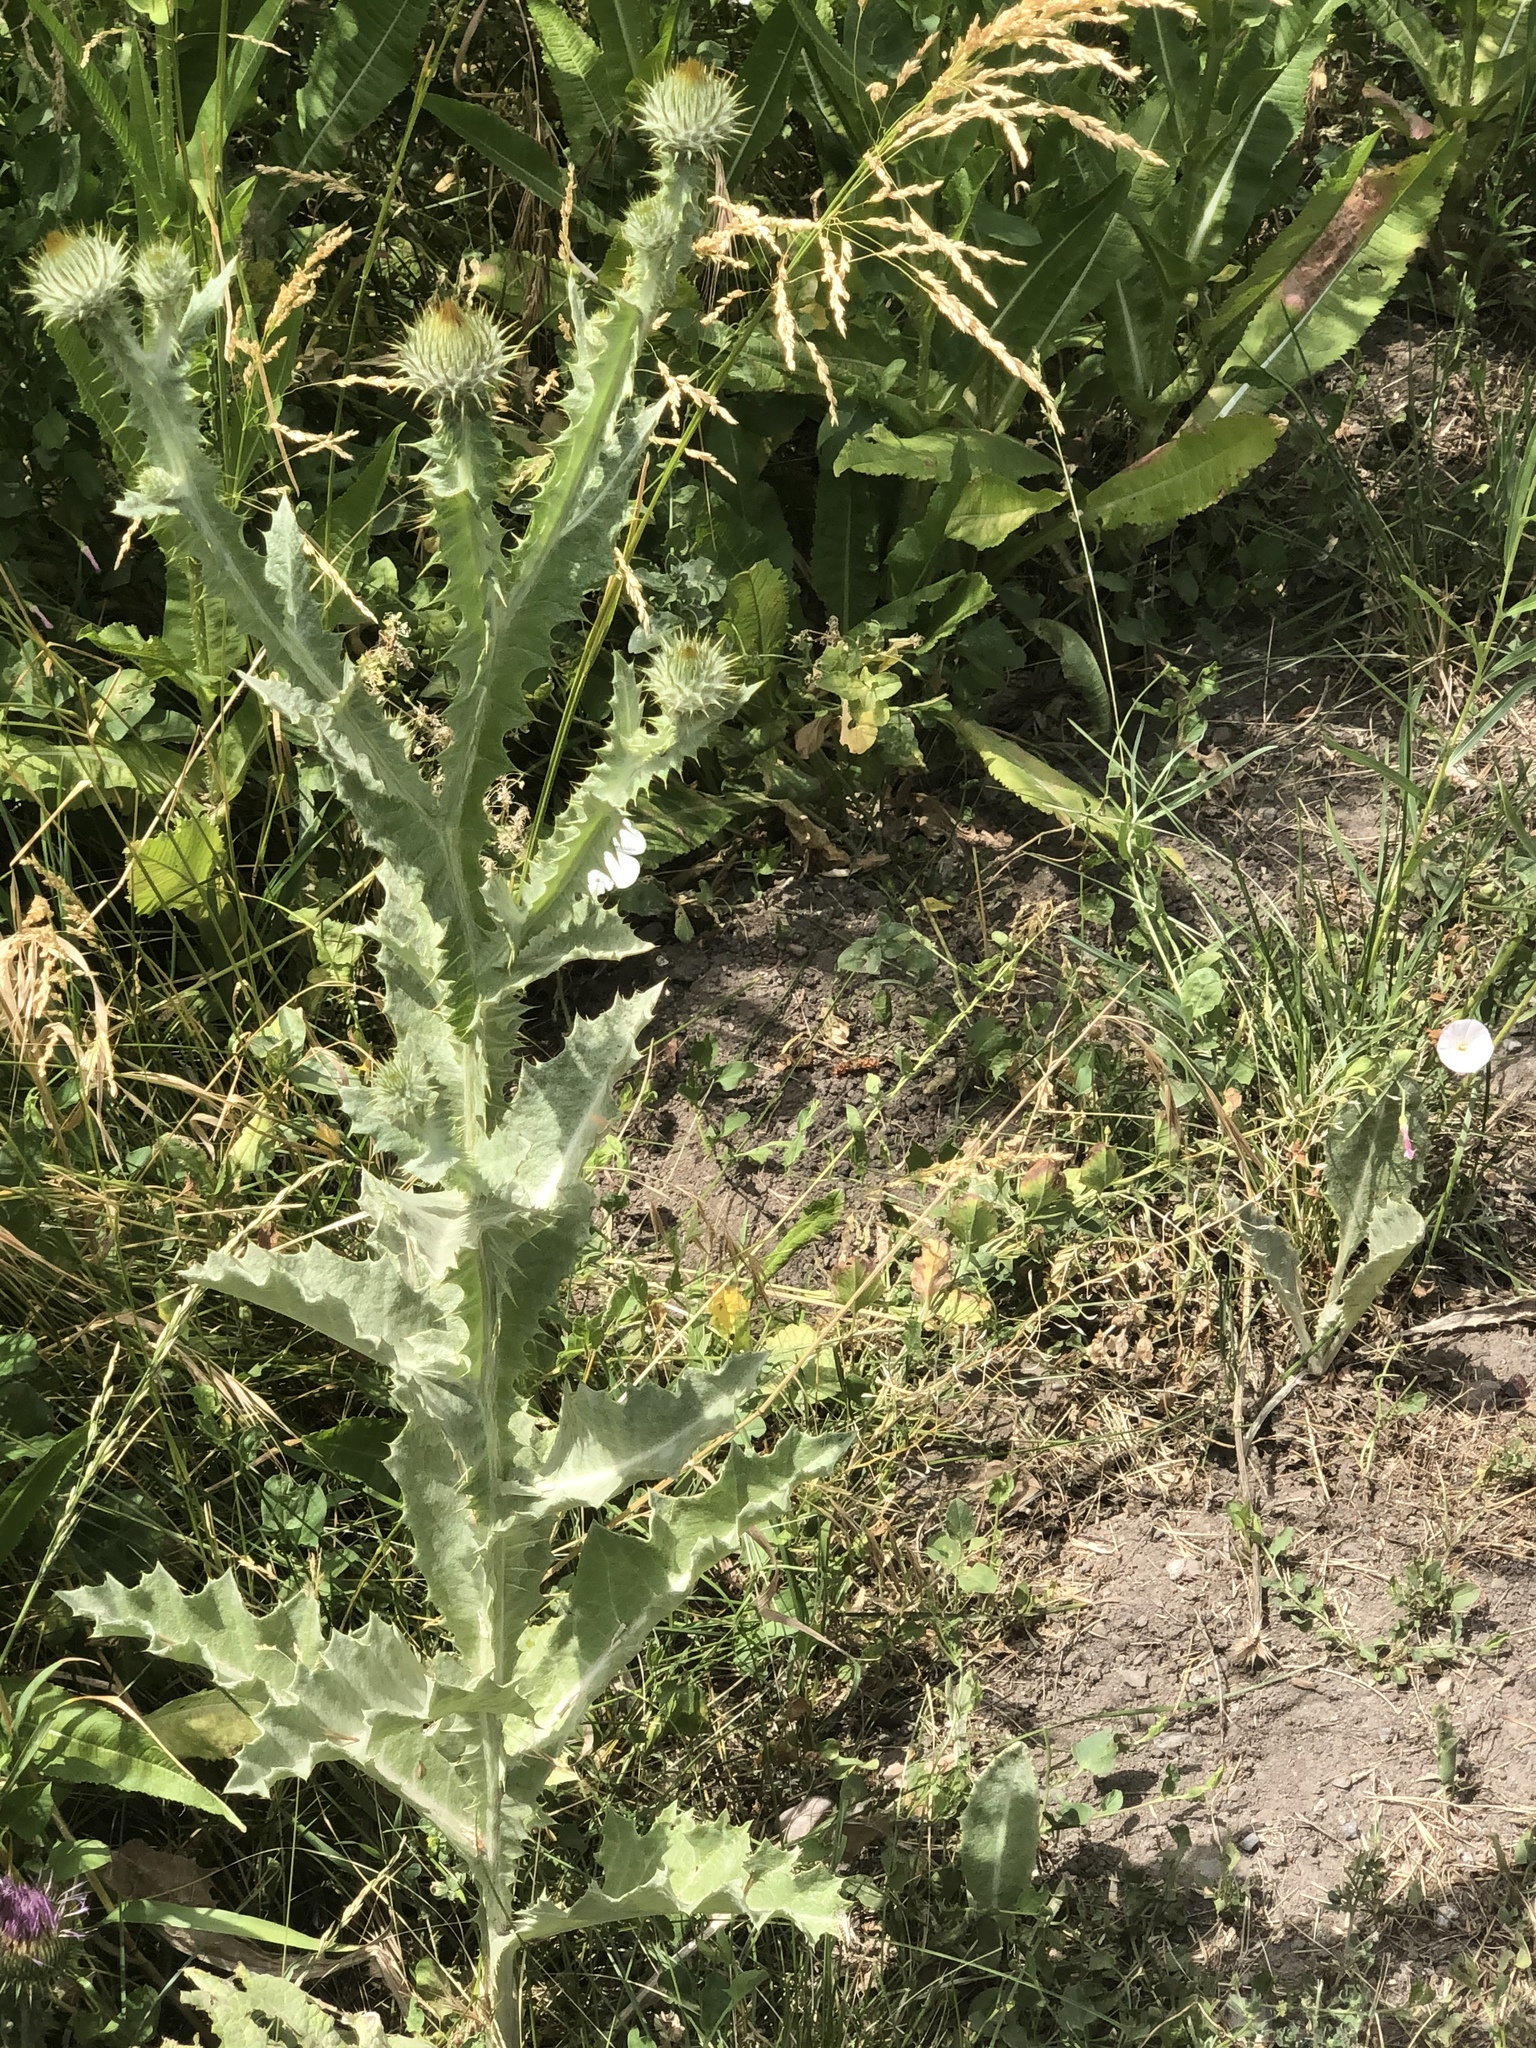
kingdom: Plantae
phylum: Tracheophyta
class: Magnoliopsida
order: Asterales
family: Asteraceae
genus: Onopordum
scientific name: Onopordum acanthium
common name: Scotch thistle
